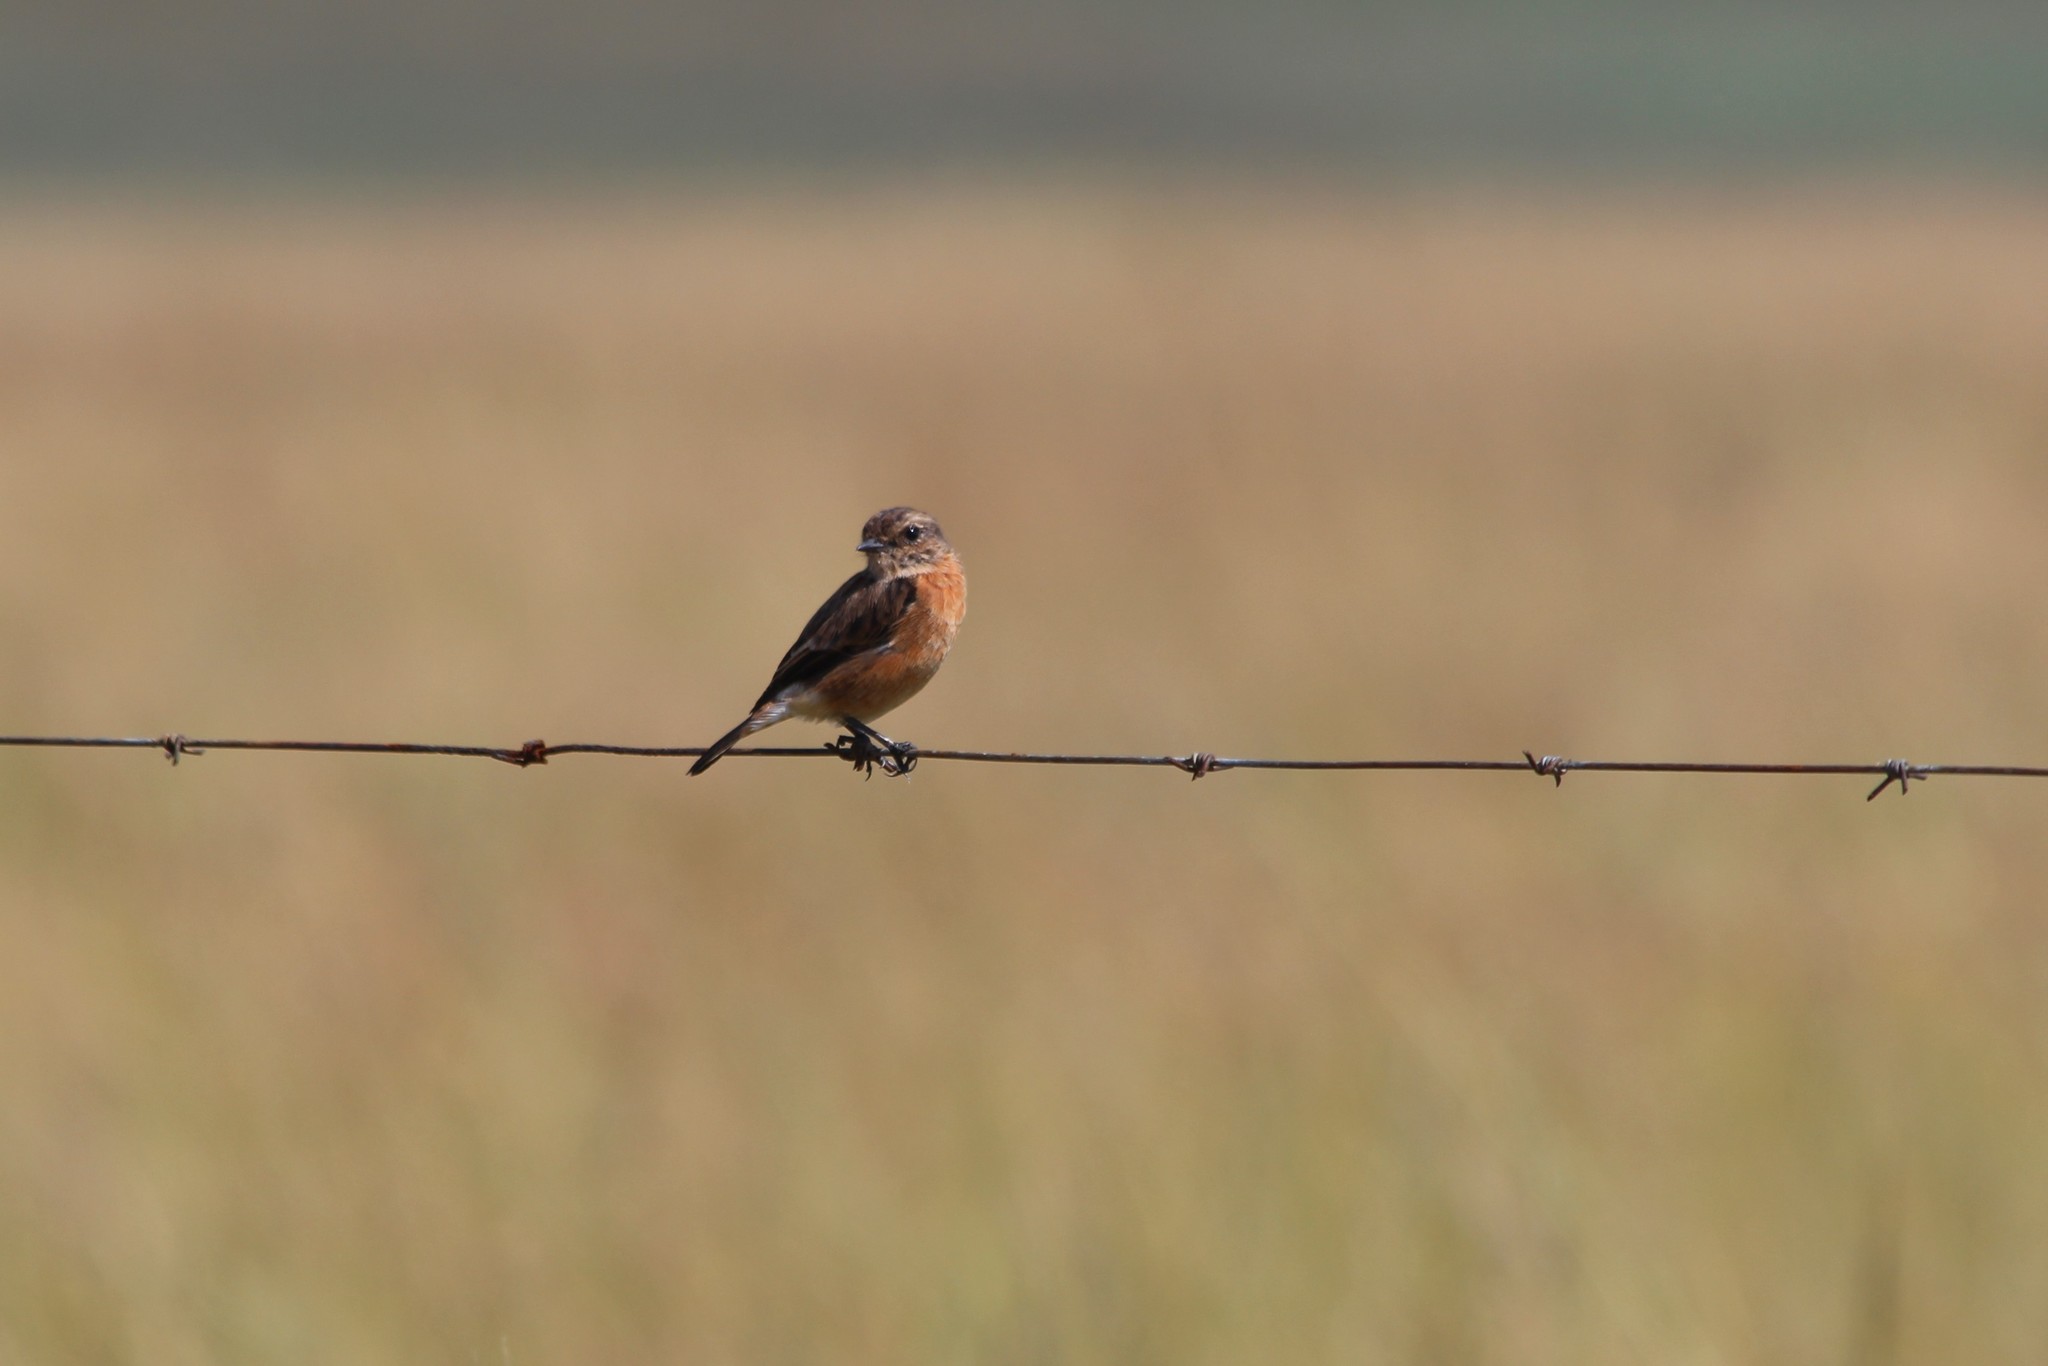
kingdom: Animalia
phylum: Chordata
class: Aves
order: Passeriformes
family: Muscicapidae
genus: Saxicola
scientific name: Saxicola torquatus
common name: African stonechat
